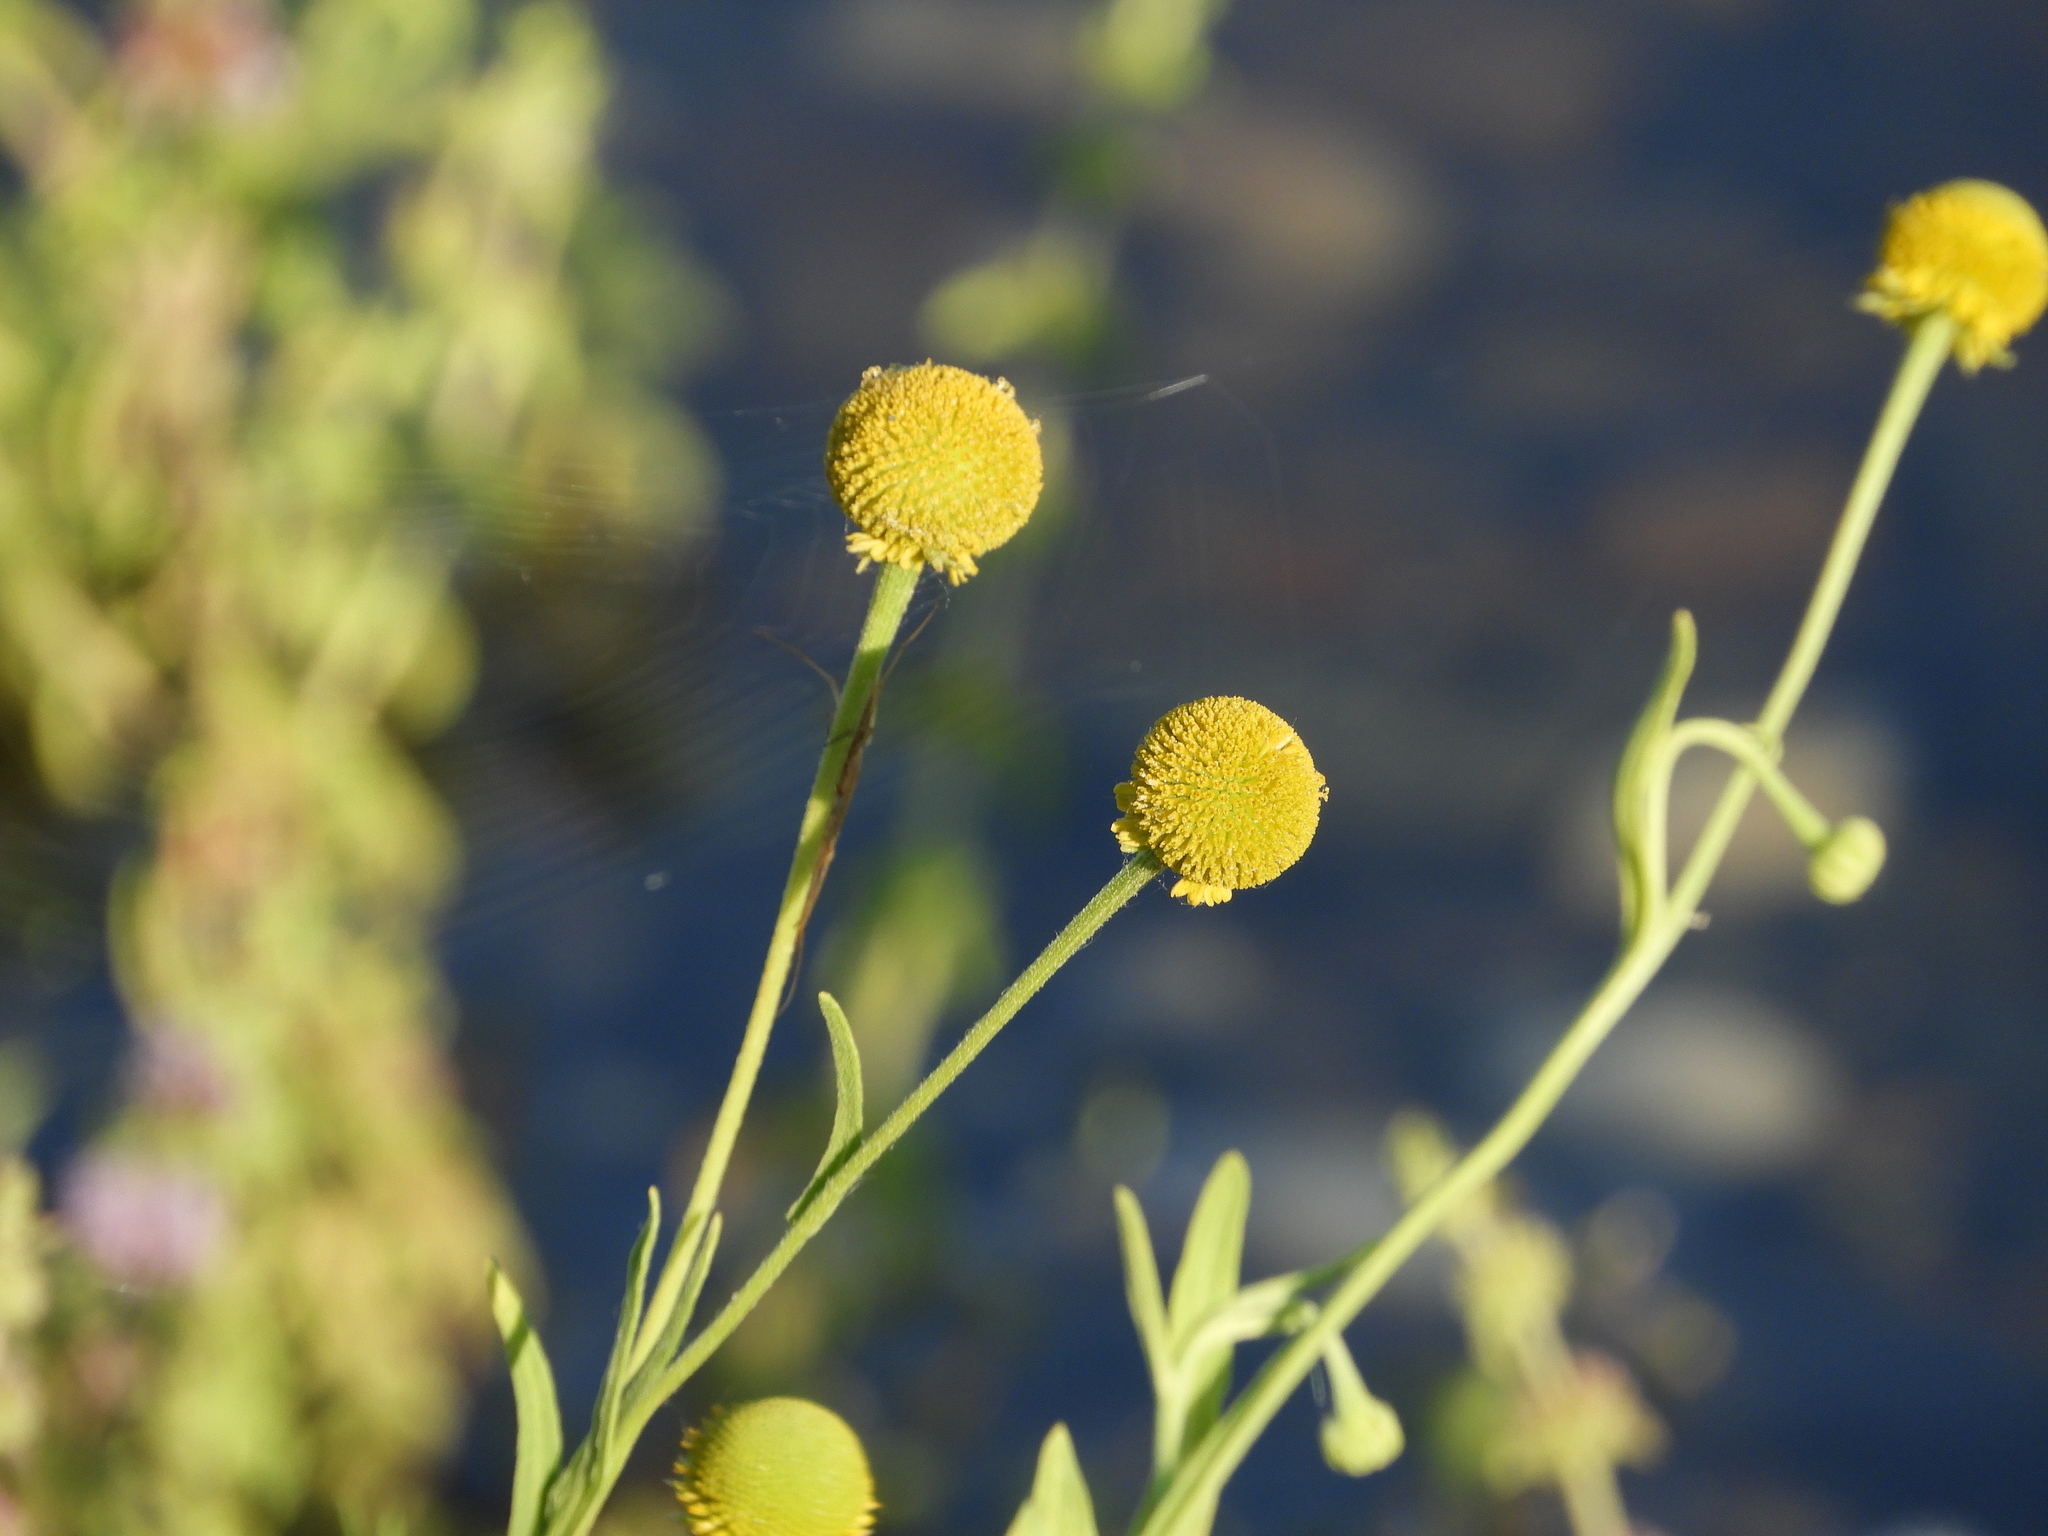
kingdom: Plantae
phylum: Tracheophyta
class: Magnoliopsida
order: Asterales
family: Asteraceae
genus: Helenium
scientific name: Helenium puberulum
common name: Sneezewort
